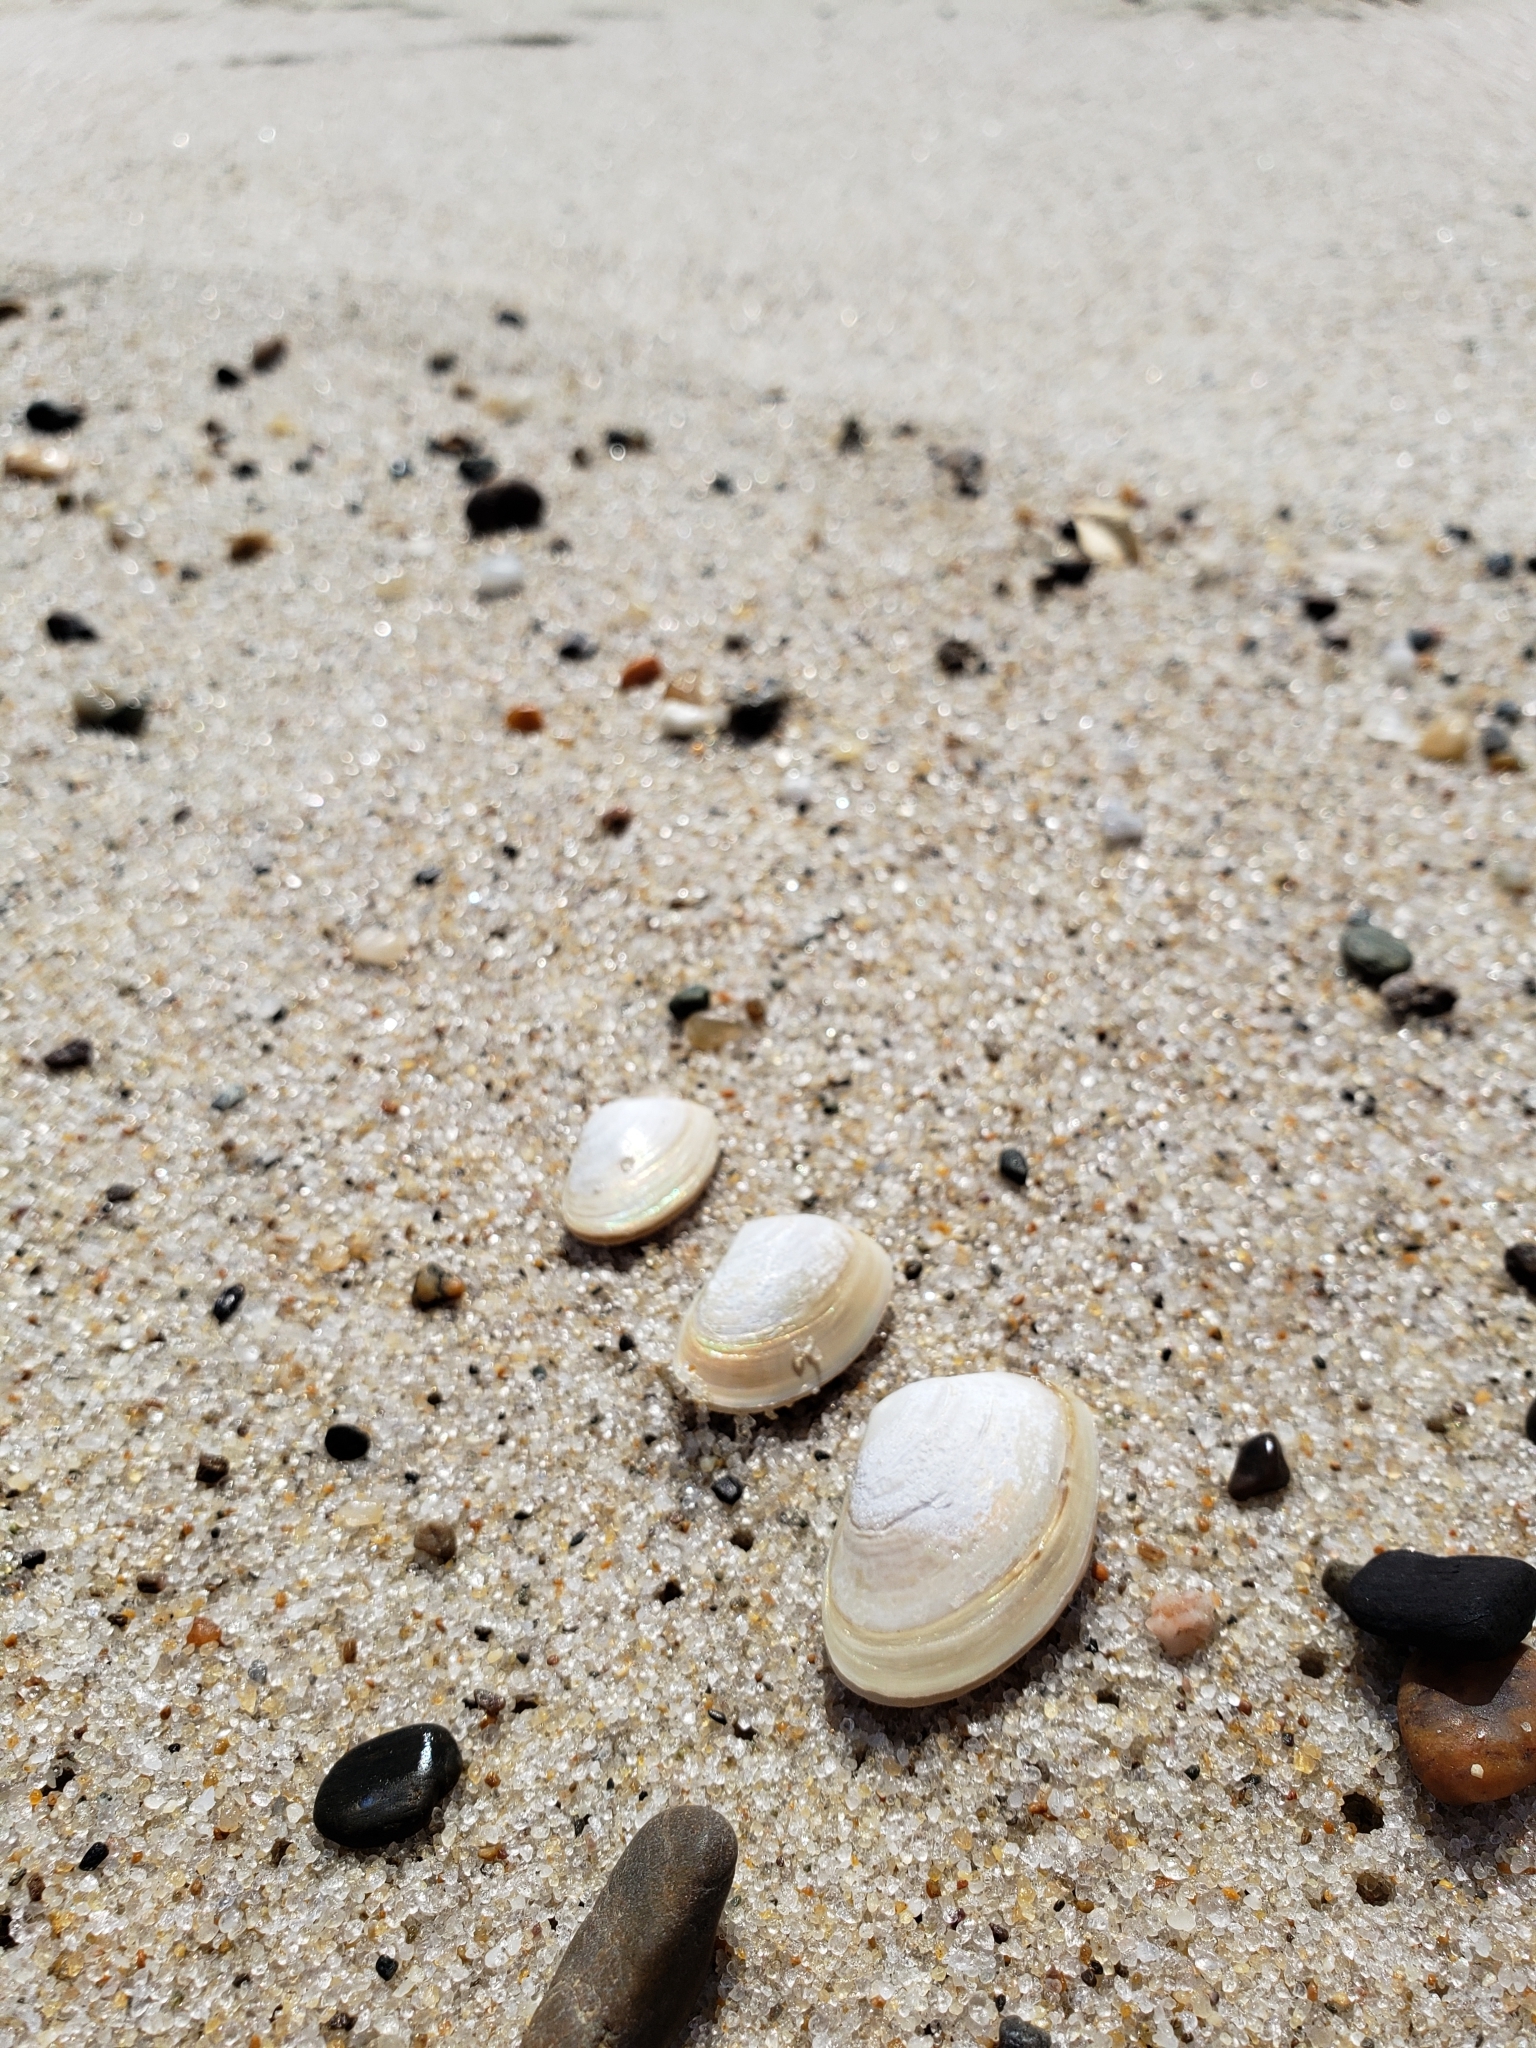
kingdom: Animalia
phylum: Mollusca
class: Bivalvia
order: Venerida
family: Mesodesmatidae
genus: Mesodesma
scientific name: Mesodesma arctatum
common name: Compressed clam
